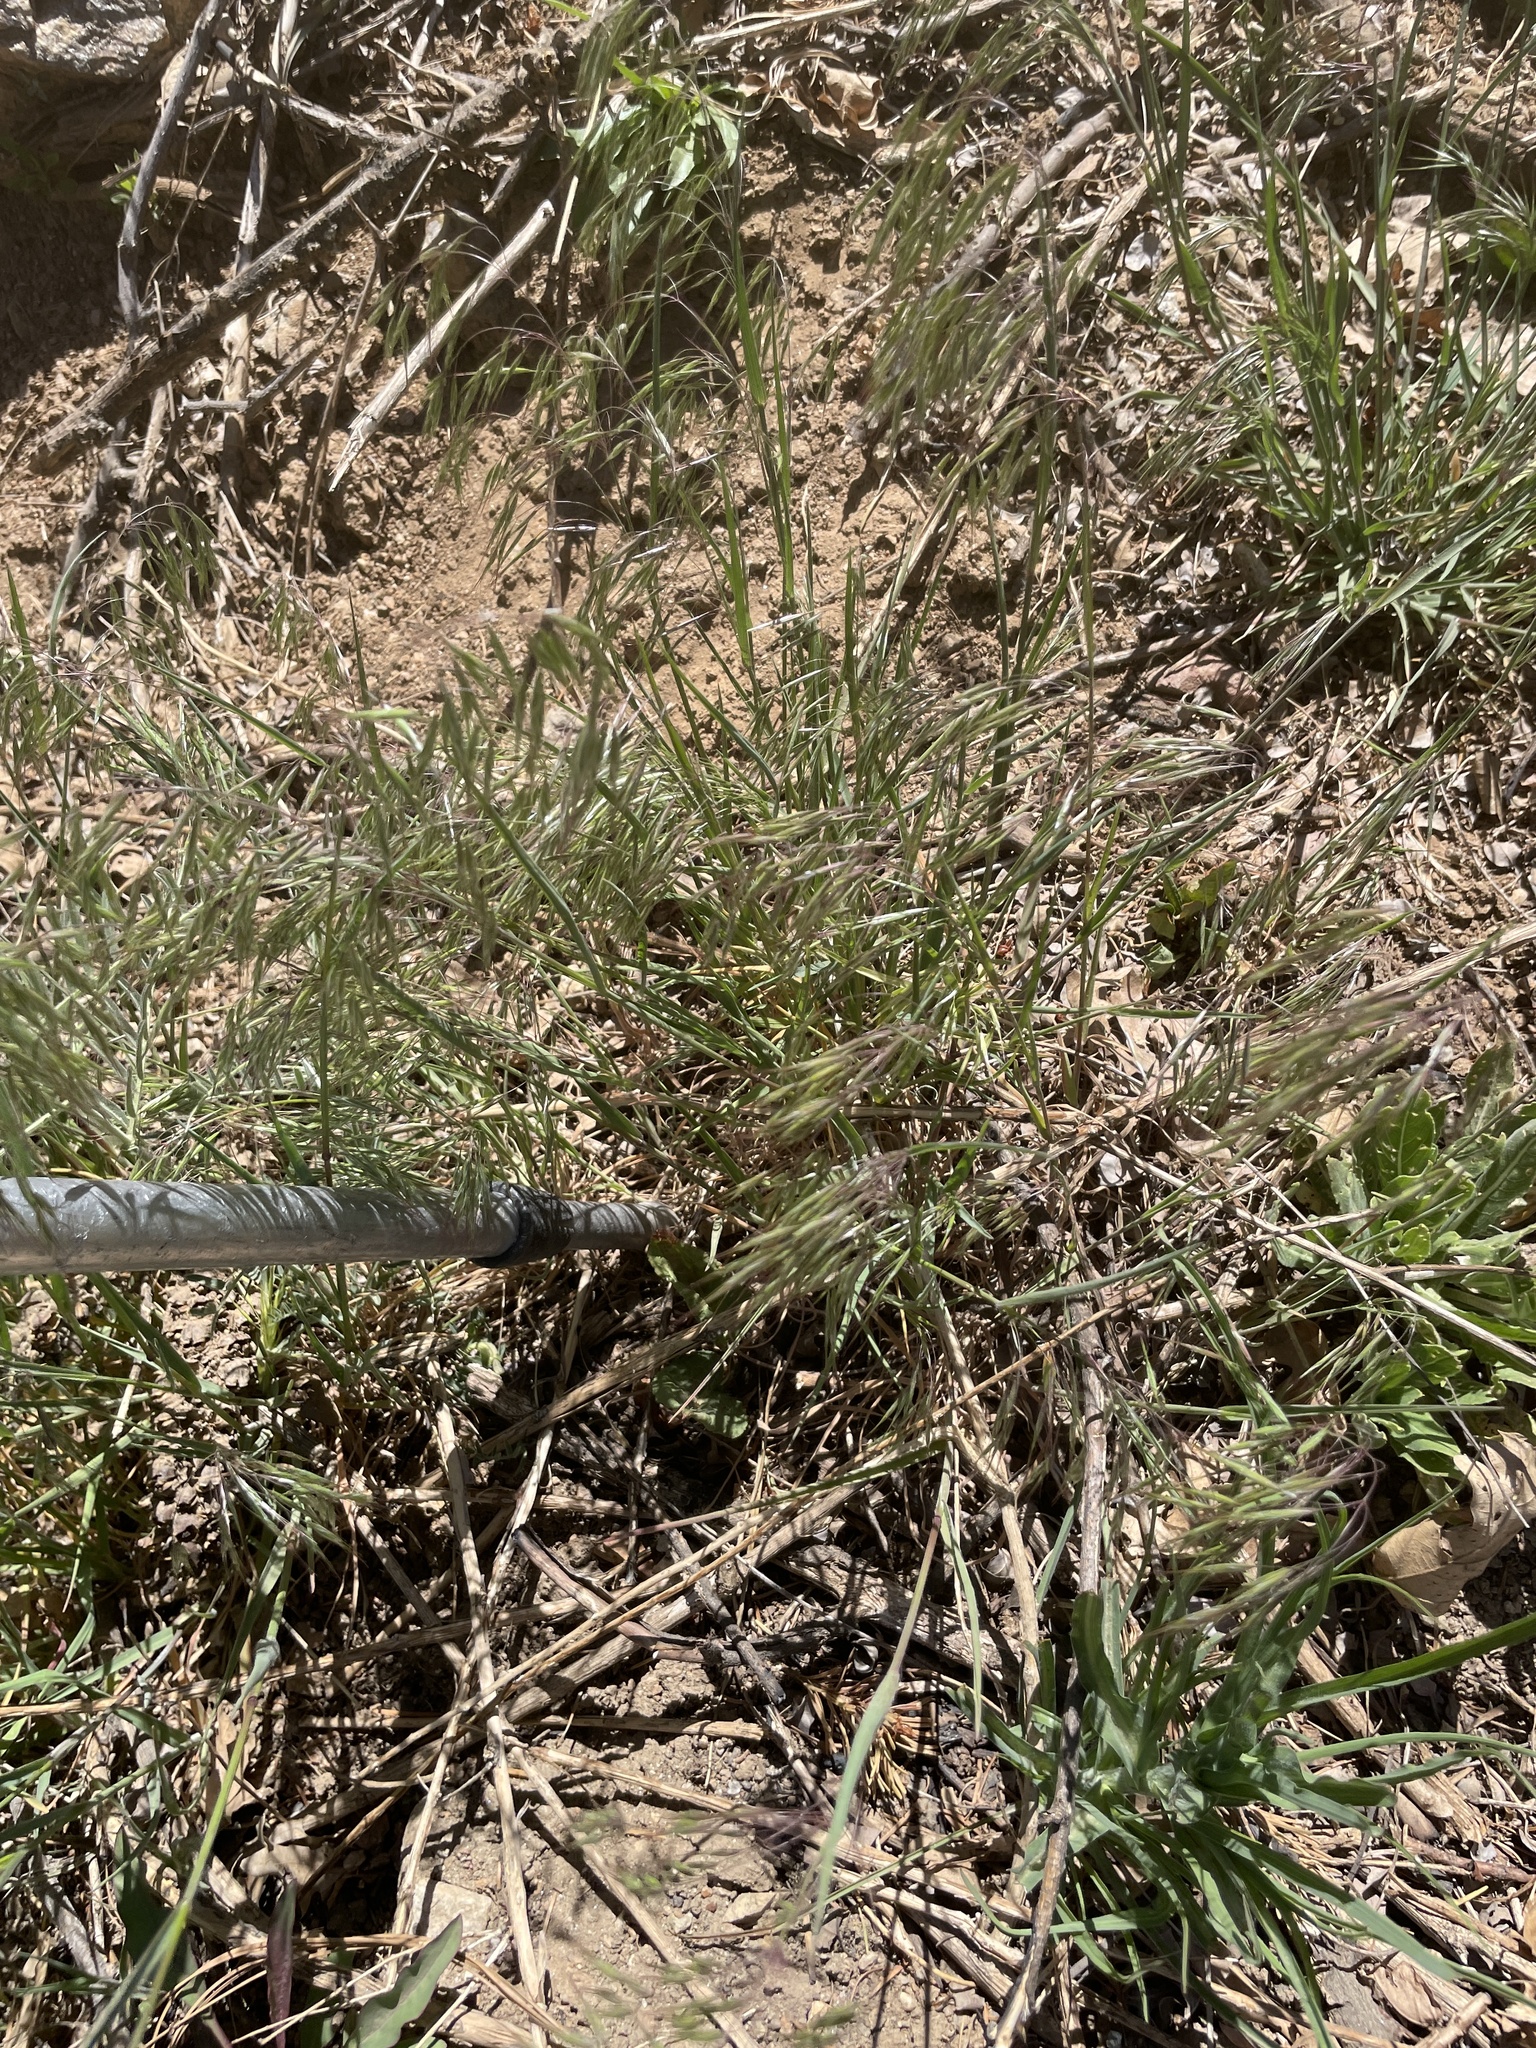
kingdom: Plantae
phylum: Tracheophyta
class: Liliopsida
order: Poales
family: Poaceae
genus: Bromus
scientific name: Bromus tectorum
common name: Cheatgrass
